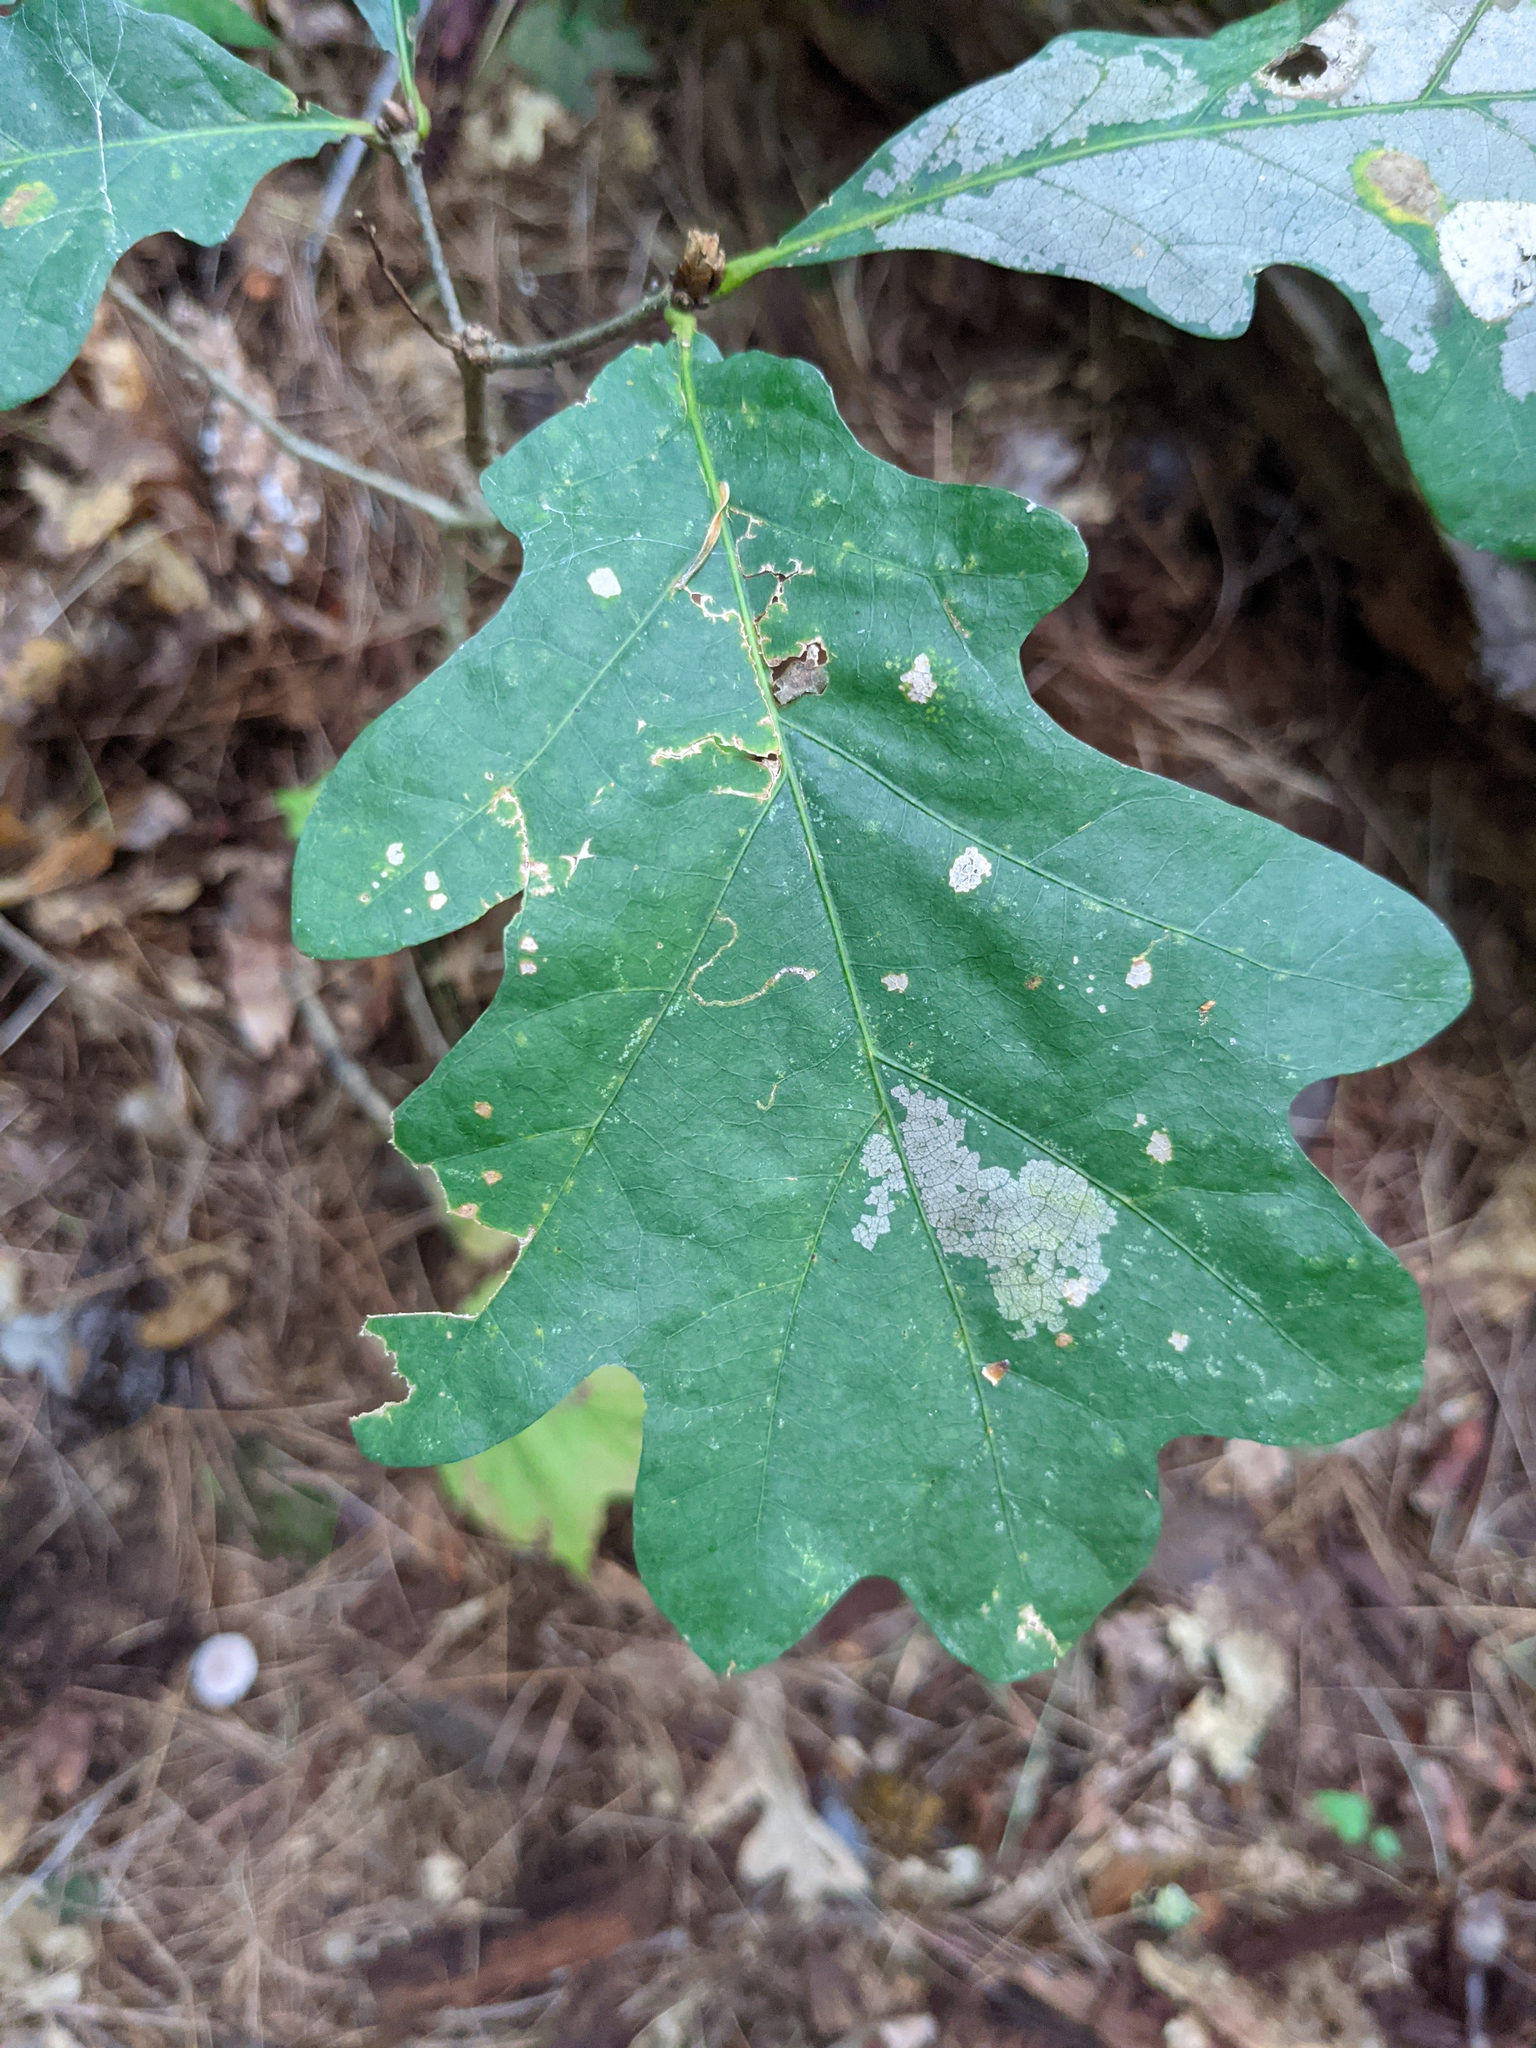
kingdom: Plantae
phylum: Tracheophyta
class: Magnoliopsida
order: Fagales
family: Fagaceae
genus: Quercus
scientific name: Quercus alba
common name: White oak
